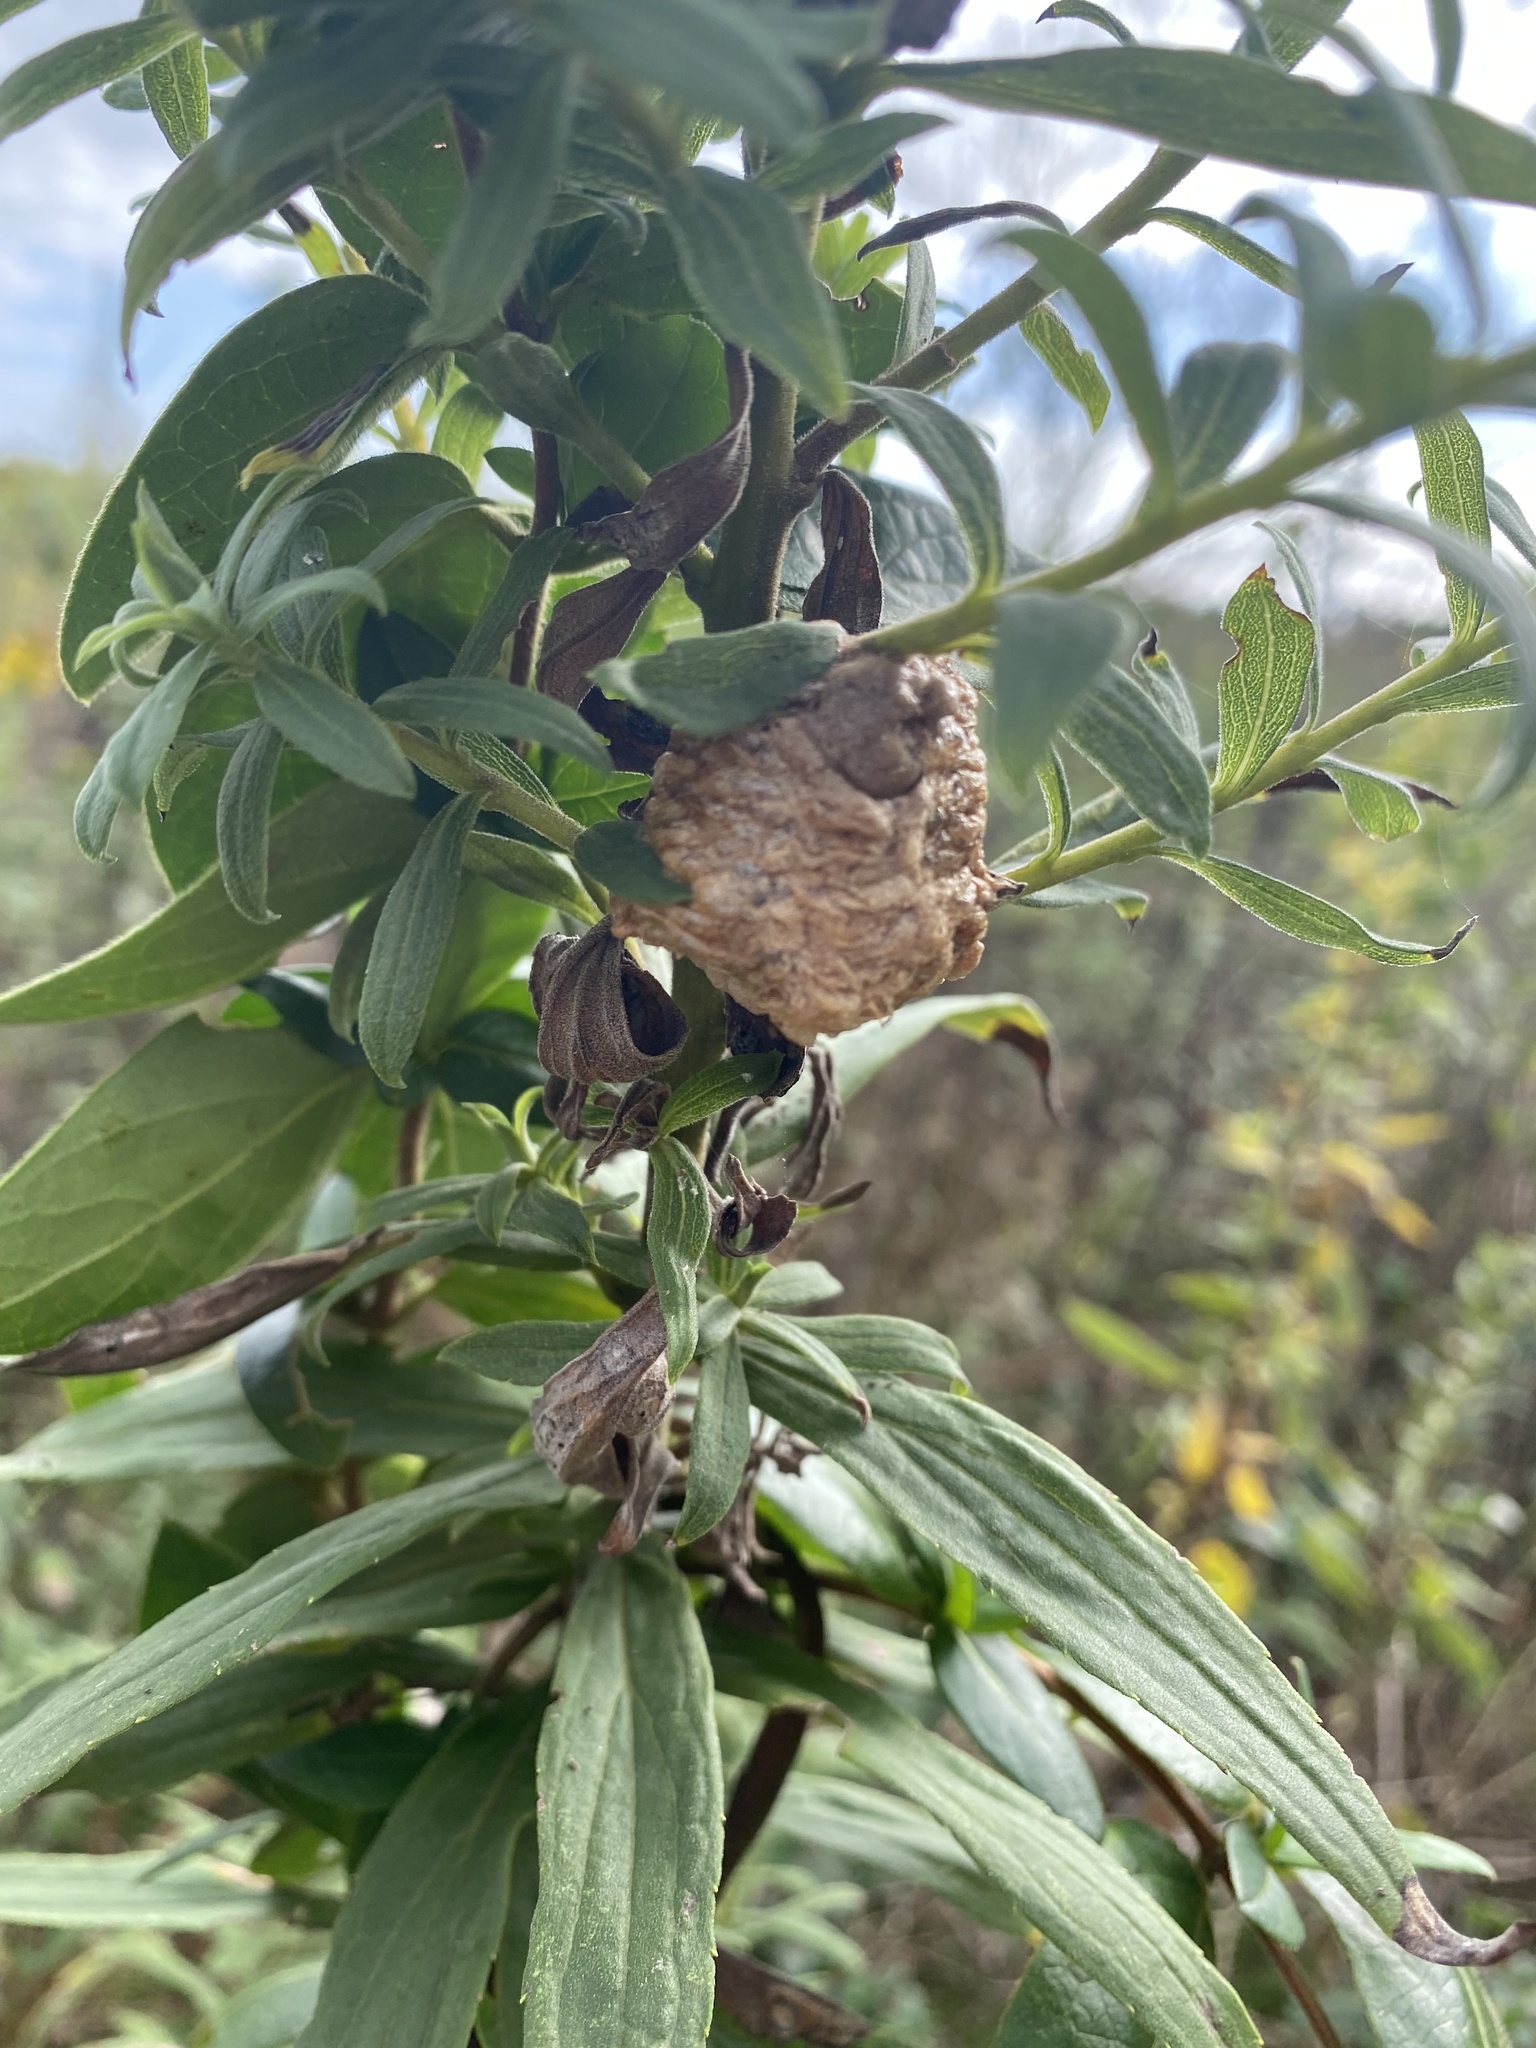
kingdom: Animalia
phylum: Arthropoda
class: Insecta
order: Mantodea
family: Mantidae
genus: Tenodera
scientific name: Tenodera sinensis
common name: Chinese mantis
